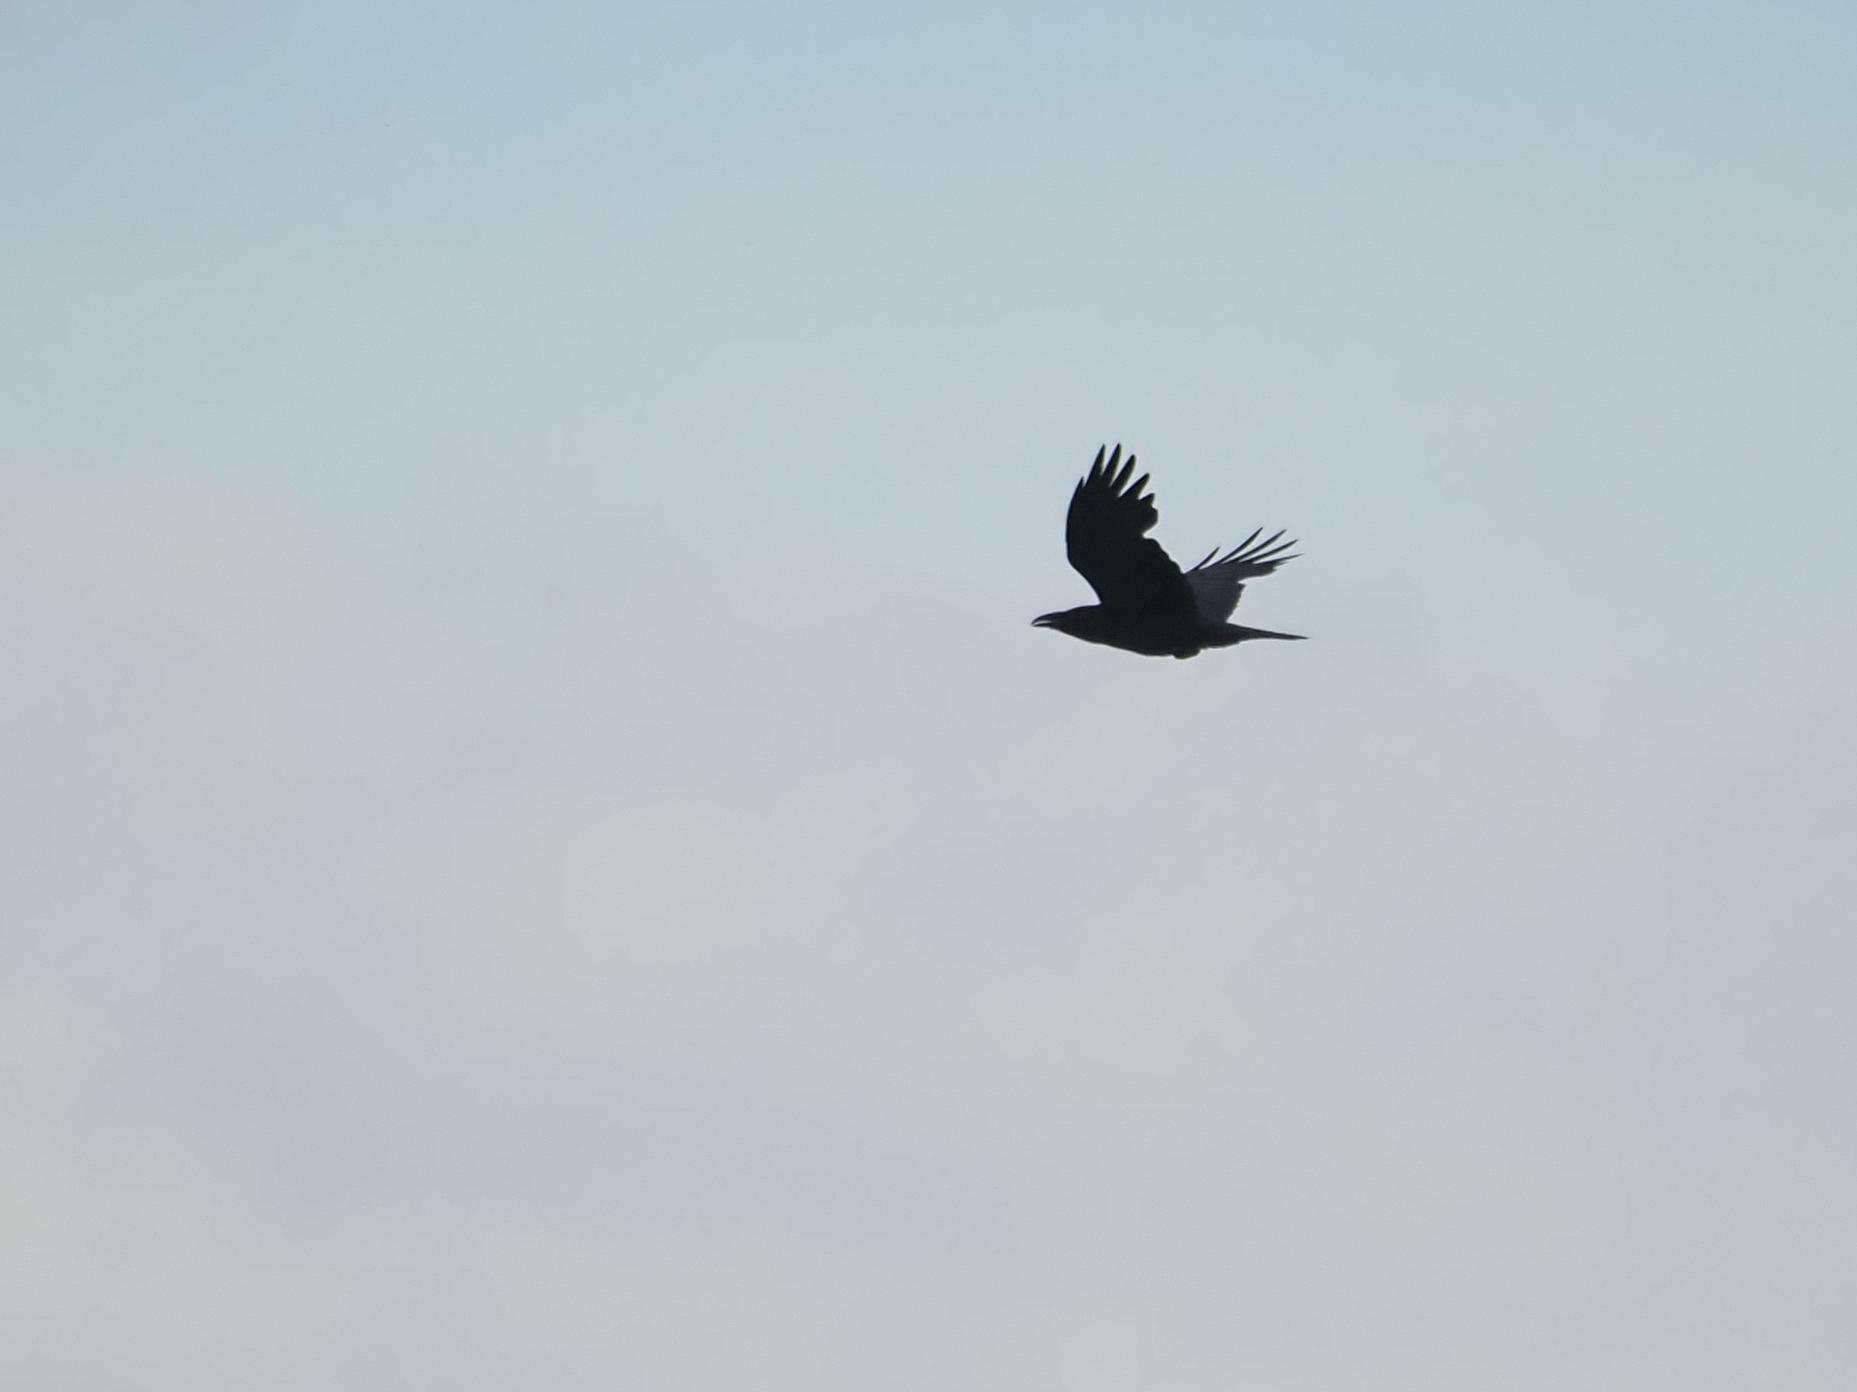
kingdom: Animalia
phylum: Chordata
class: Aves
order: Passeriformes
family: Corvidae
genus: Corvus
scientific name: Corvus corax
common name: Common raven
